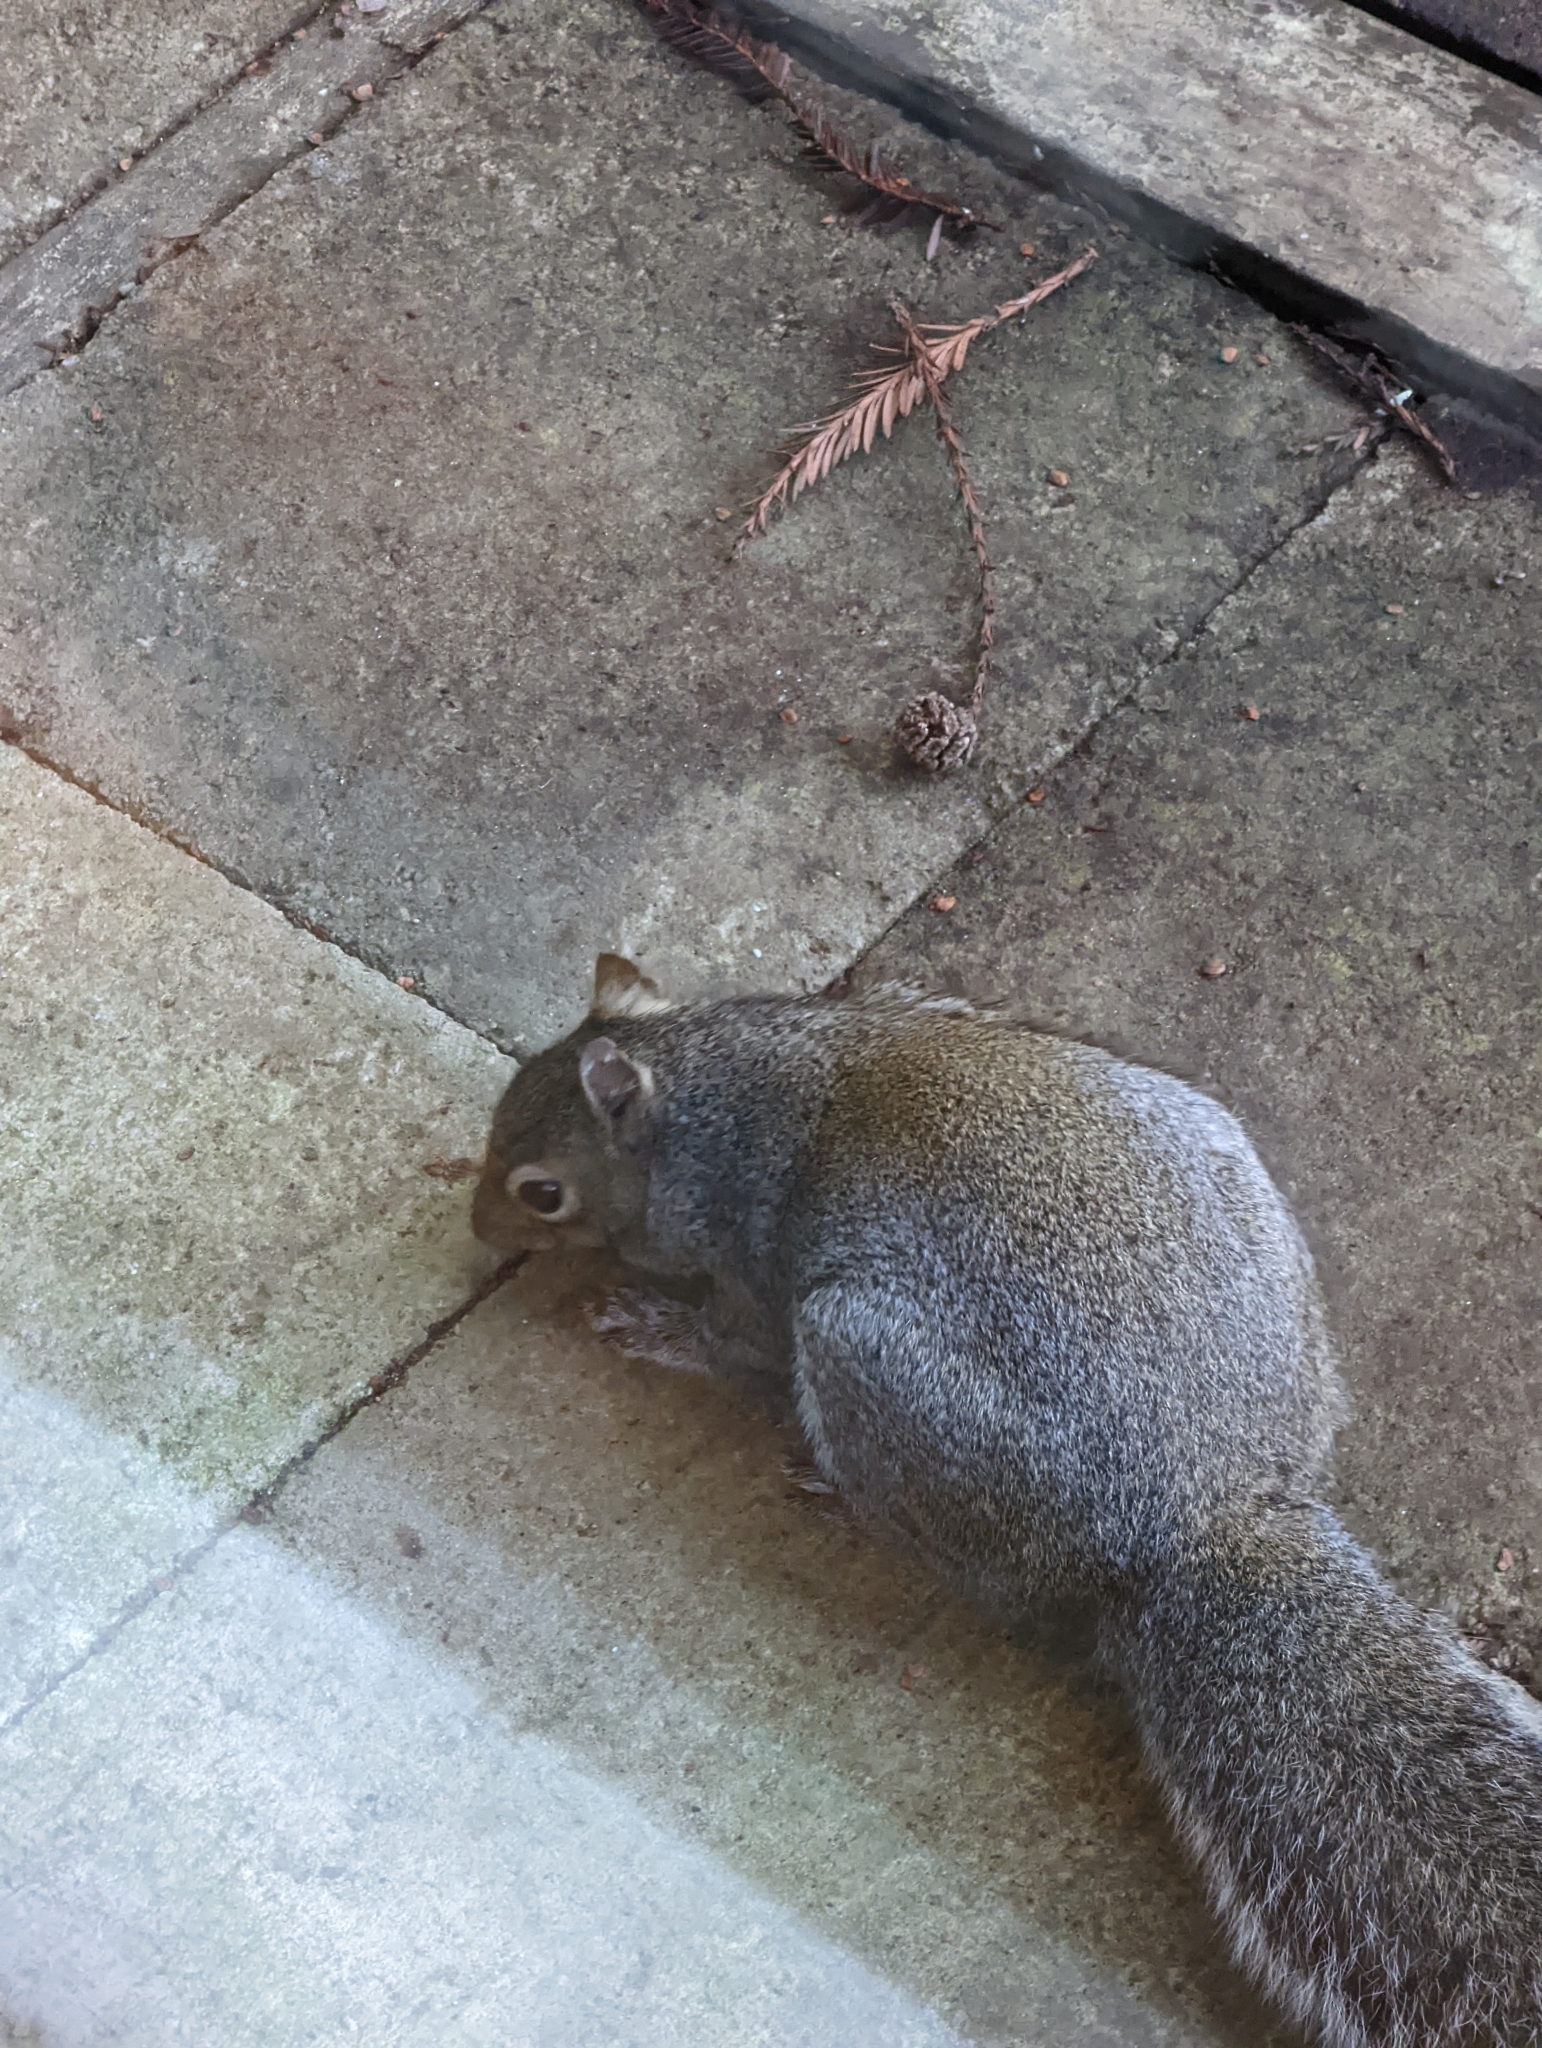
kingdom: Animalia
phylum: Chordata
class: Mammalia
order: Rodentia
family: Sciuridae
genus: Sciurus
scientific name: Sciurus carolinensis
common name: Eastern gray squirrel
